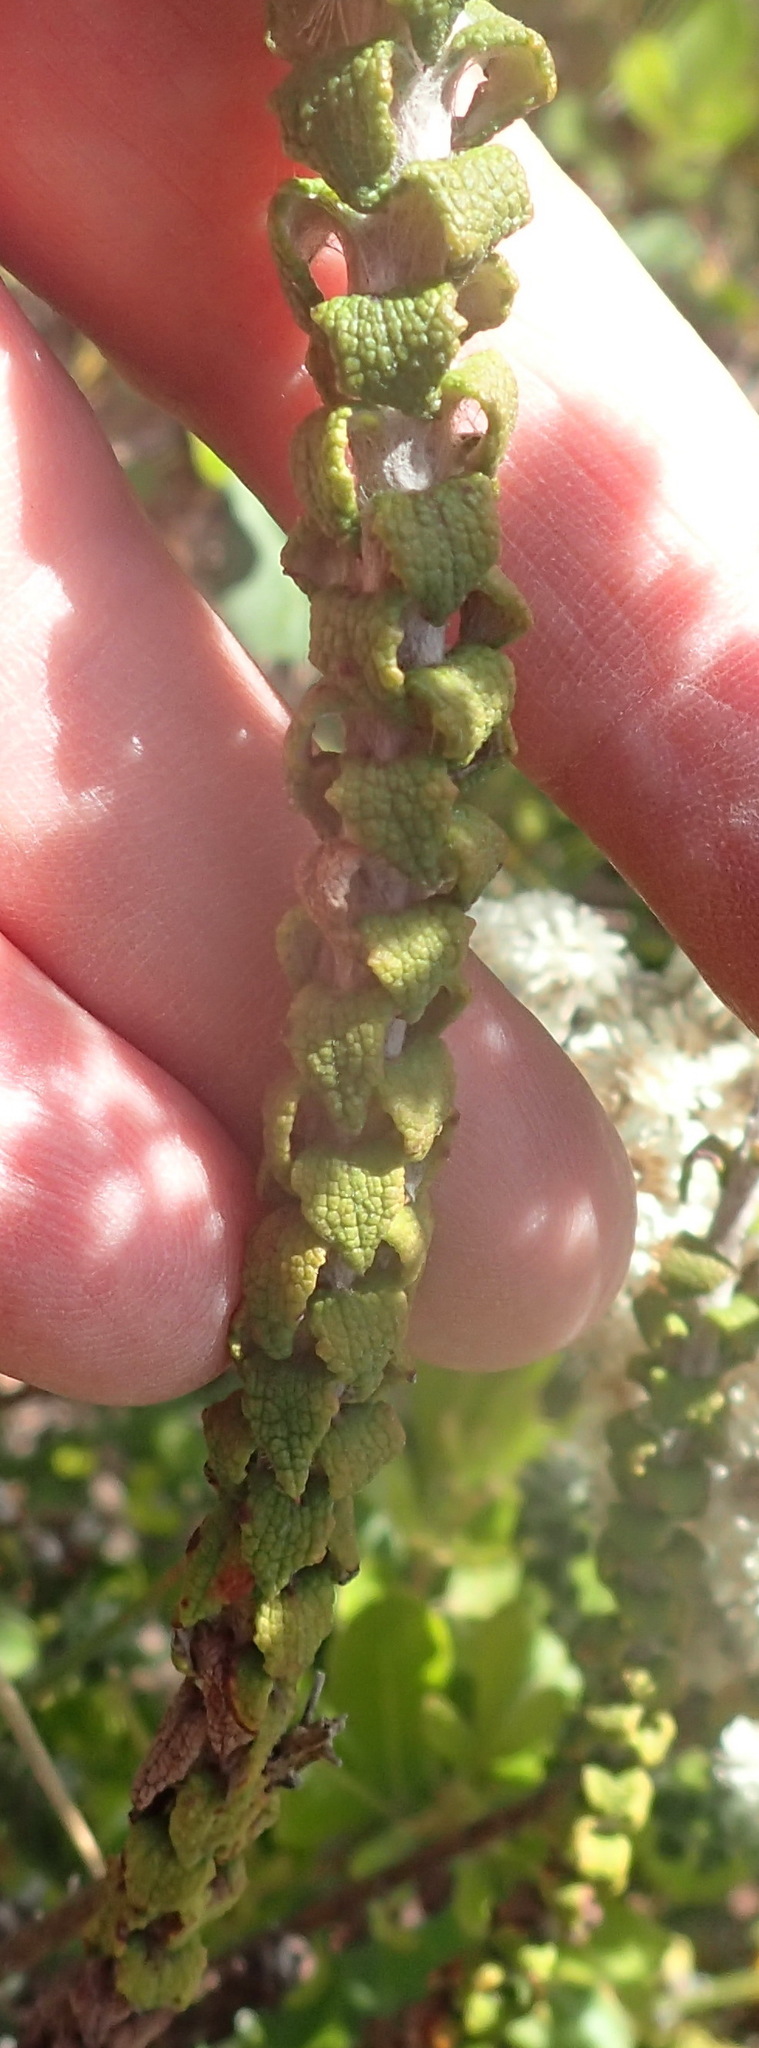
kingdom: Plantae
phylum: Tracheophyta
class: Magnoliopsida
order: Asterales
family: Asteraceae
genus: Helichrysum
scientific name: Helichrysum felinum
